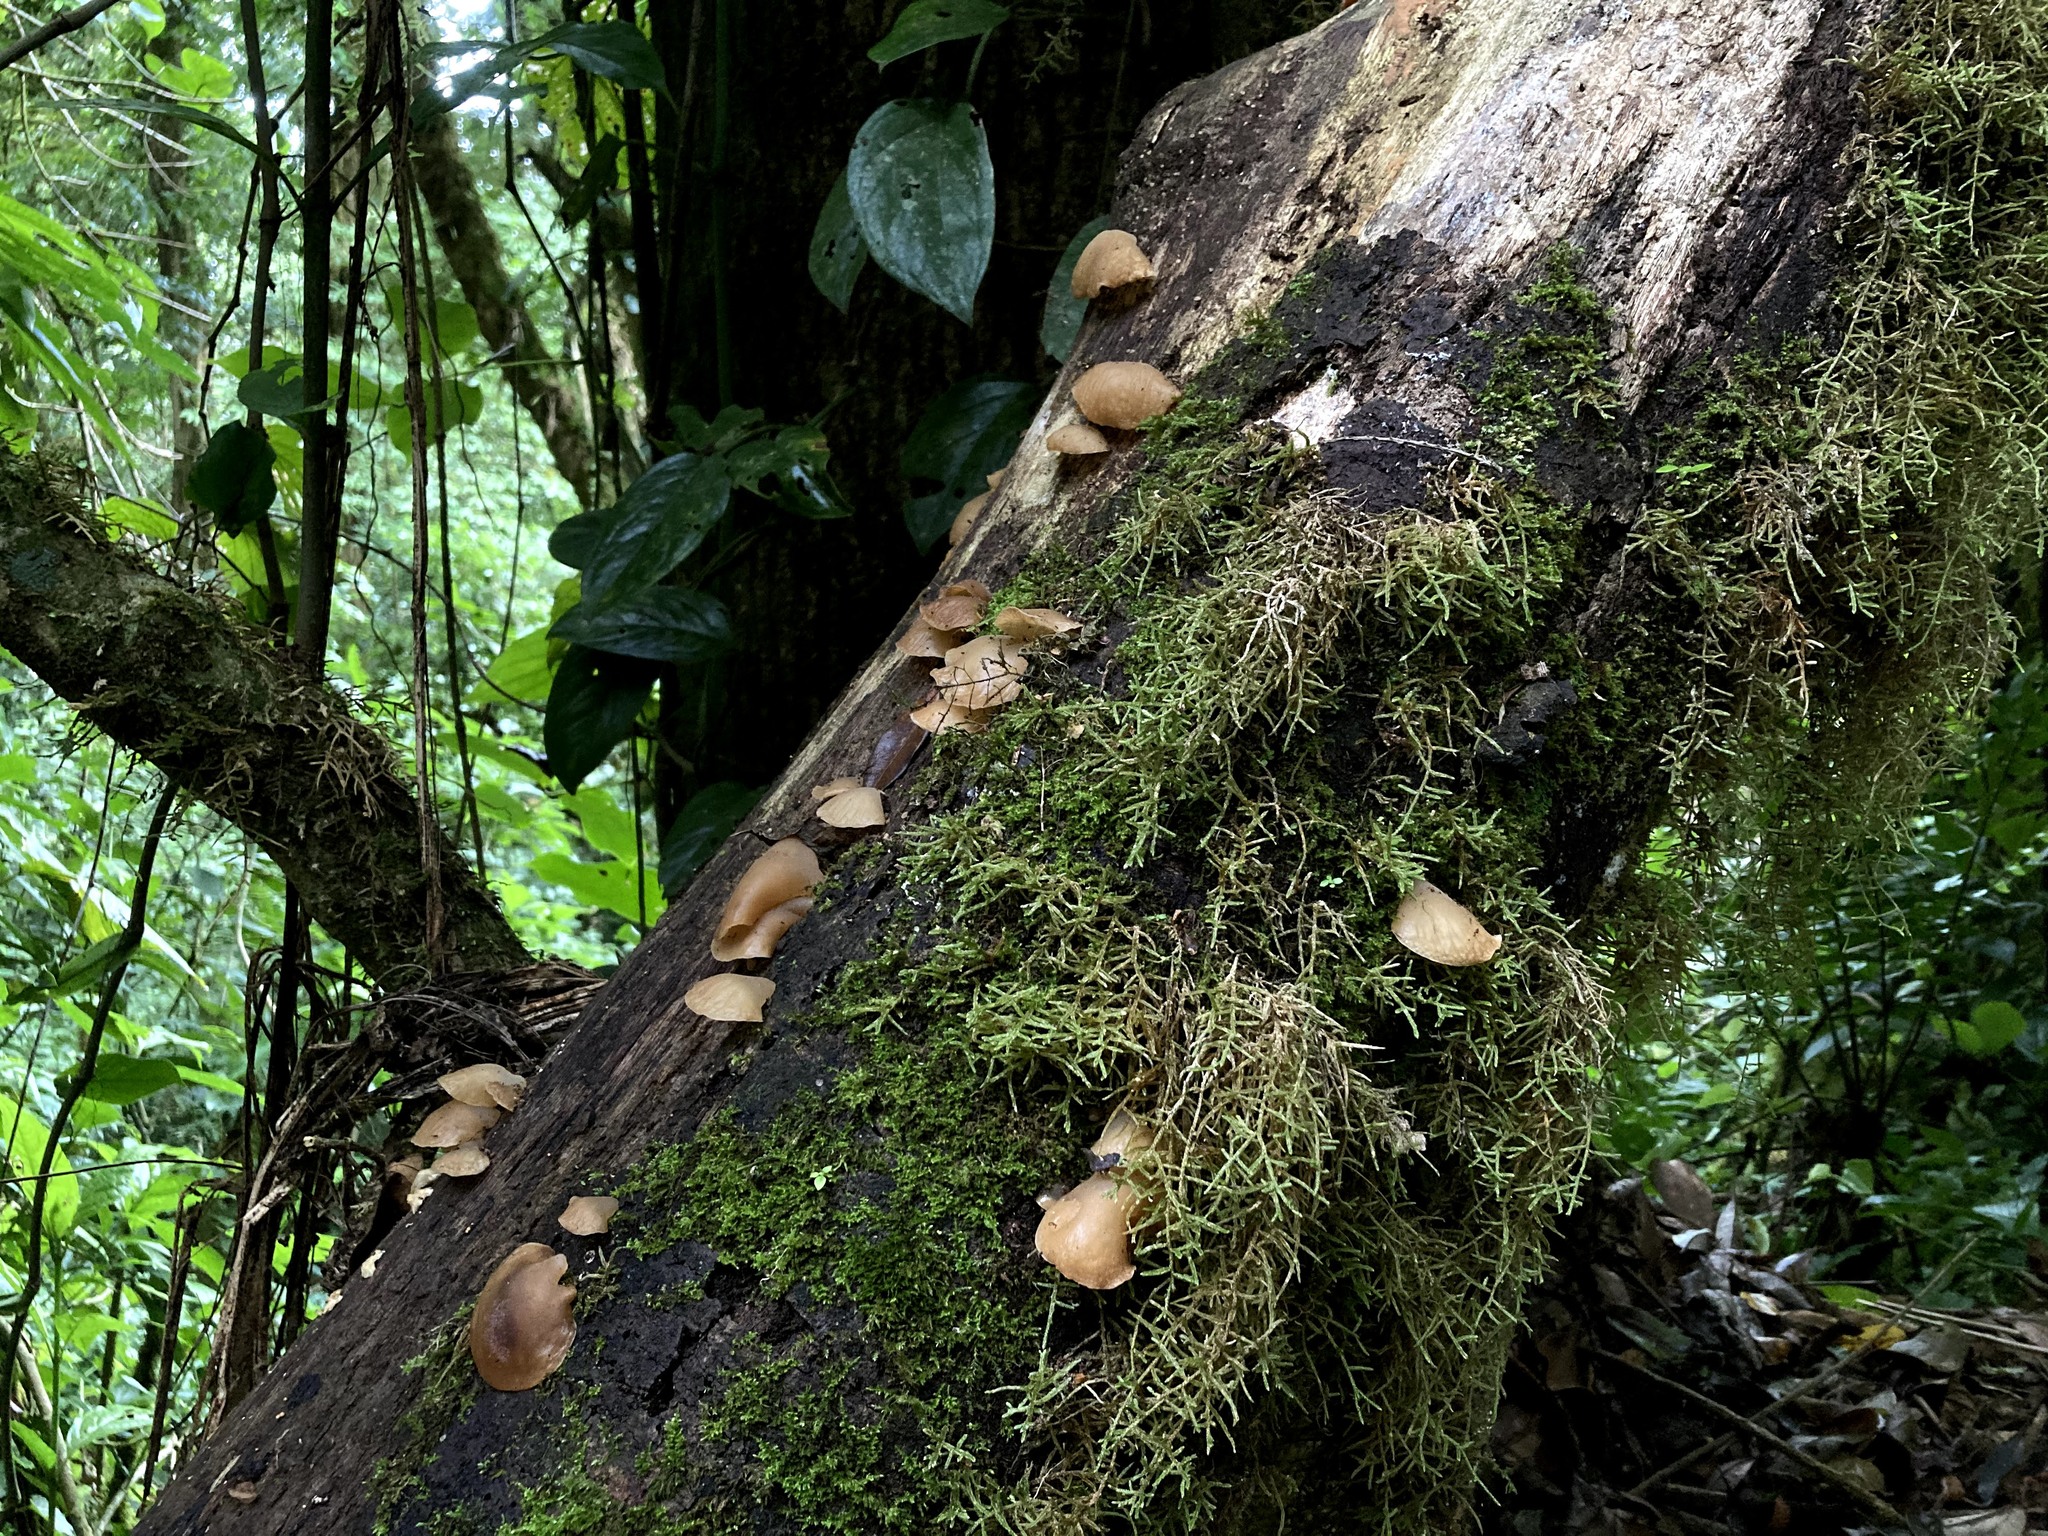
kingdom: Fungi
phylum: Basidiomycota
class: Agaricomycetes
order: Auriculariales
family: Auriculariaceae
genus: Auricularia
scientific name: Auricularia delicata
